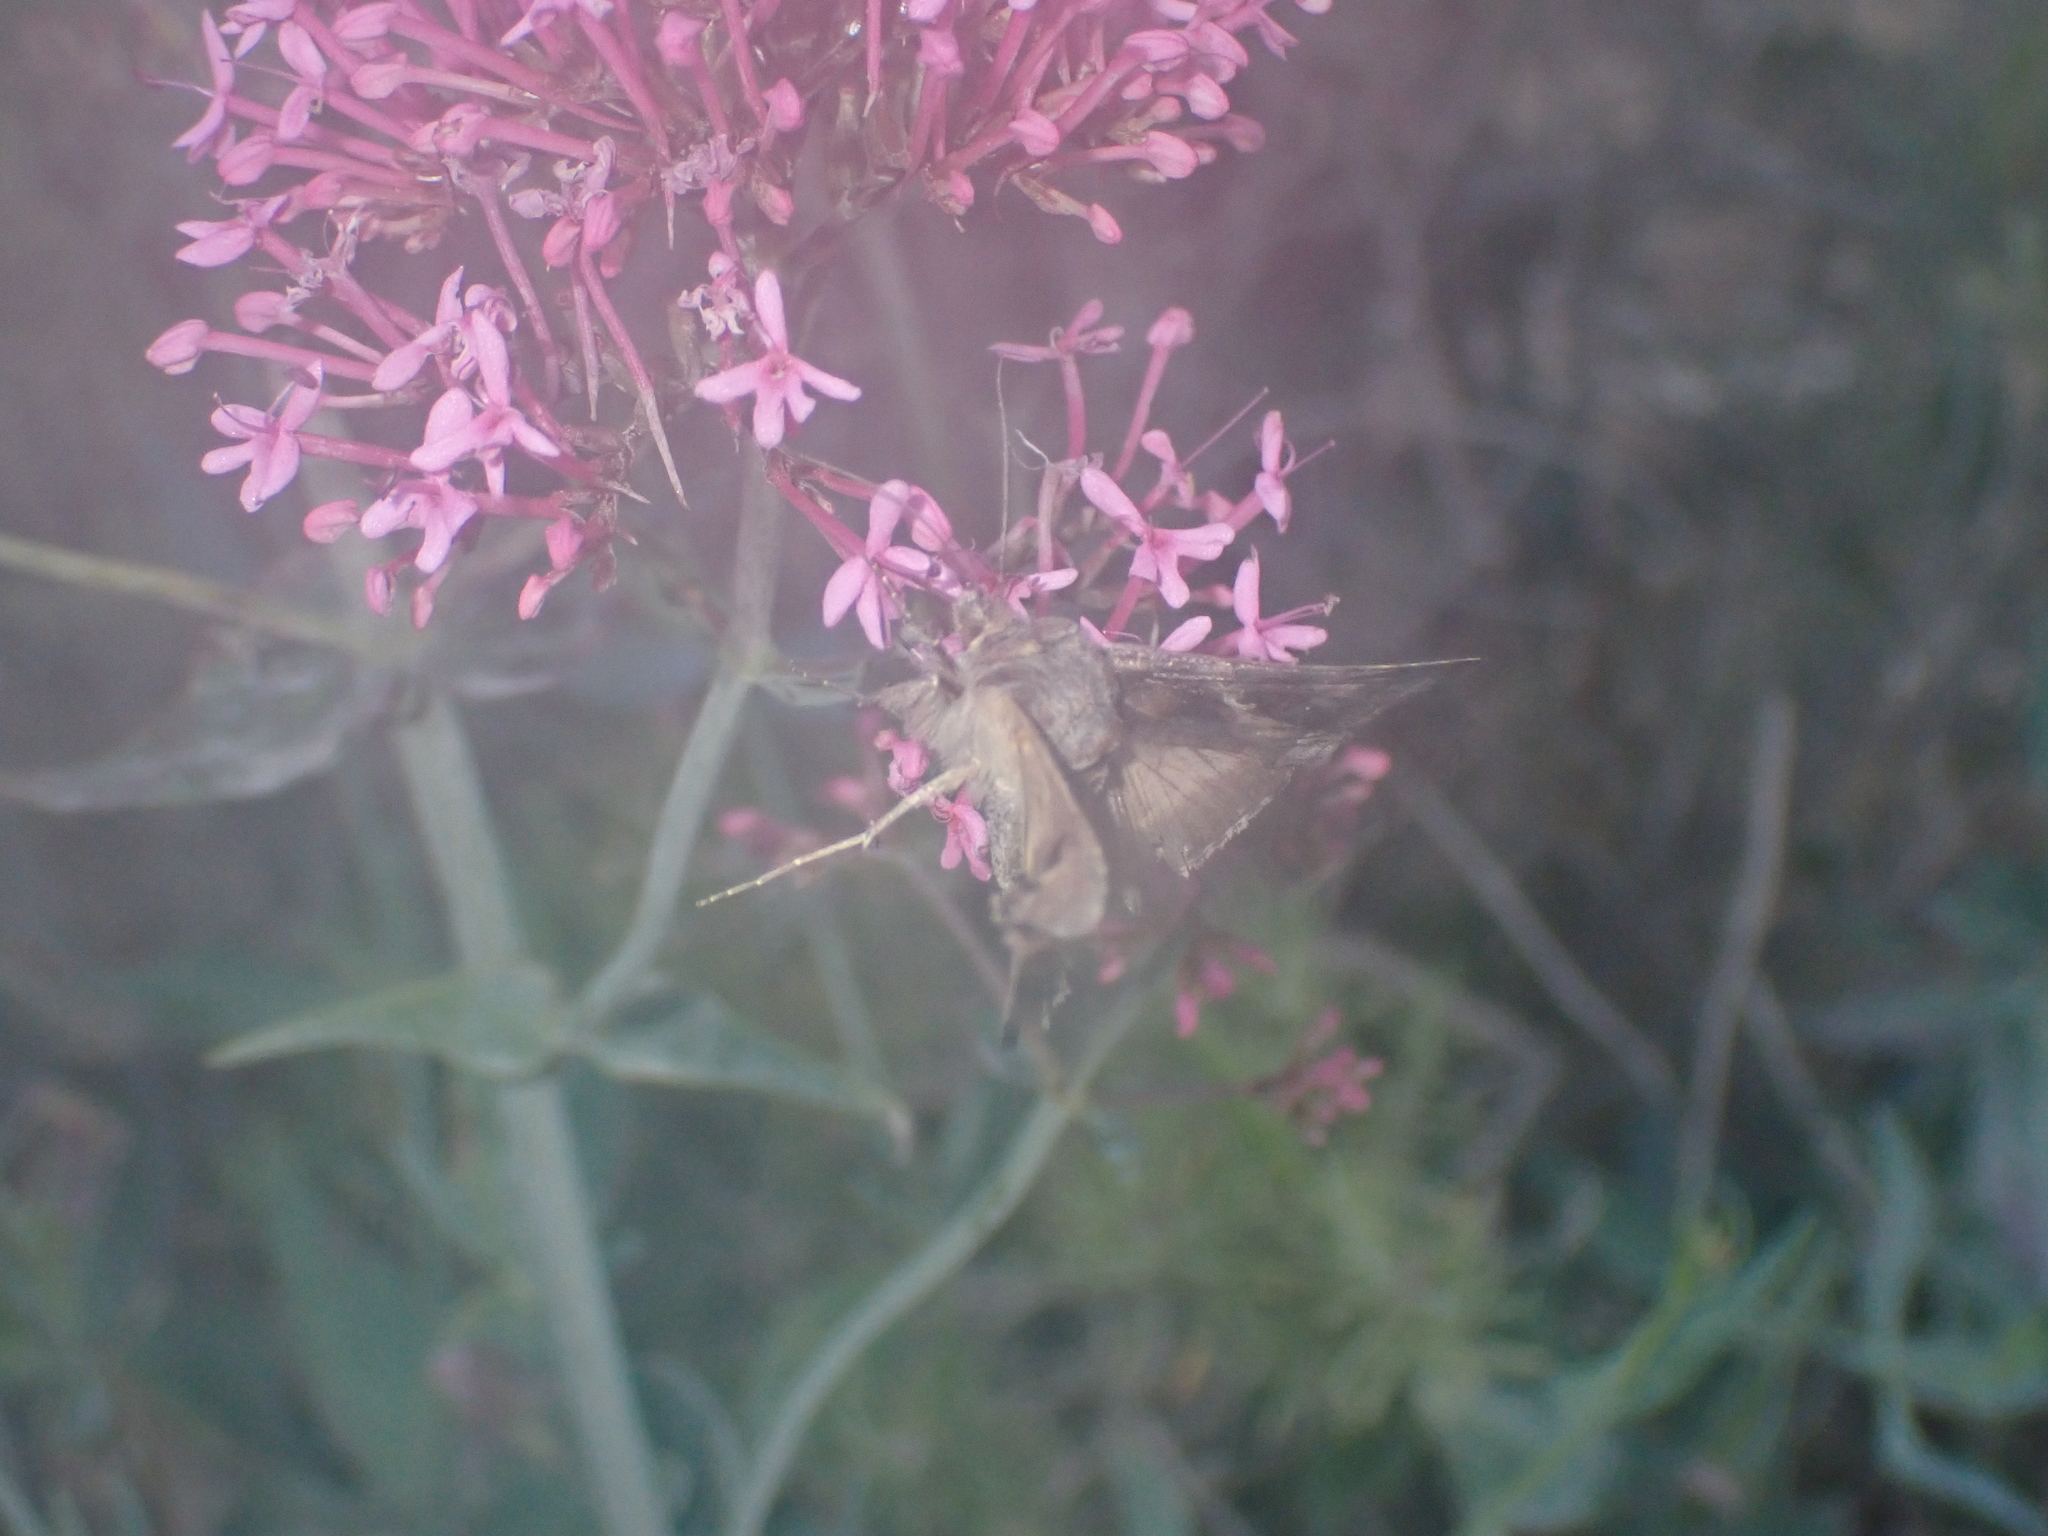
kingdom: Animalia
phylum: Arthropoda
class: Insecta
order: Lepidoptera
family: Noctuidae
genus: Autographa
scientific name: Autographa gamma
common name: Silver y
